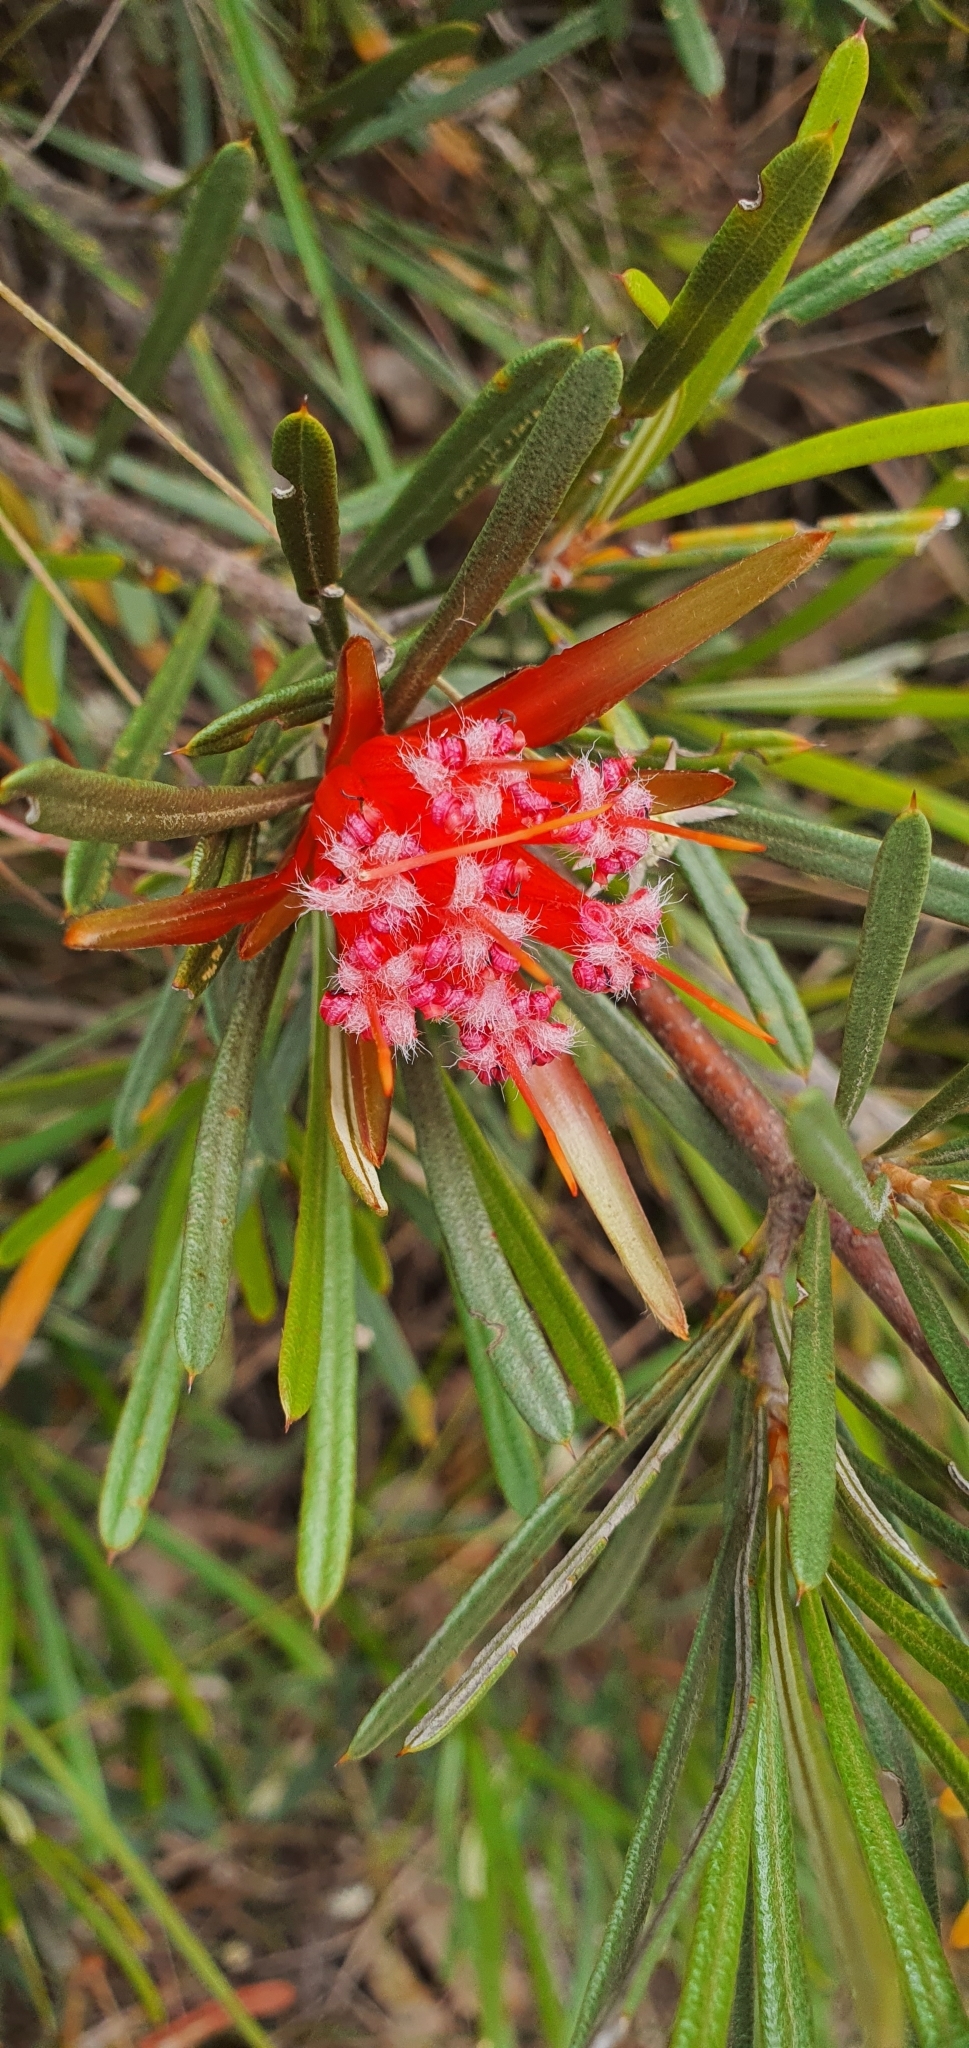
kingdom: Plantae
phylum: Tracheophyta
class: Magnoliopsida
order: Proteales
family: Proteaceae
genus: Lambertia
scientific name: Lambertia formosa
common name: Mountain-devil
